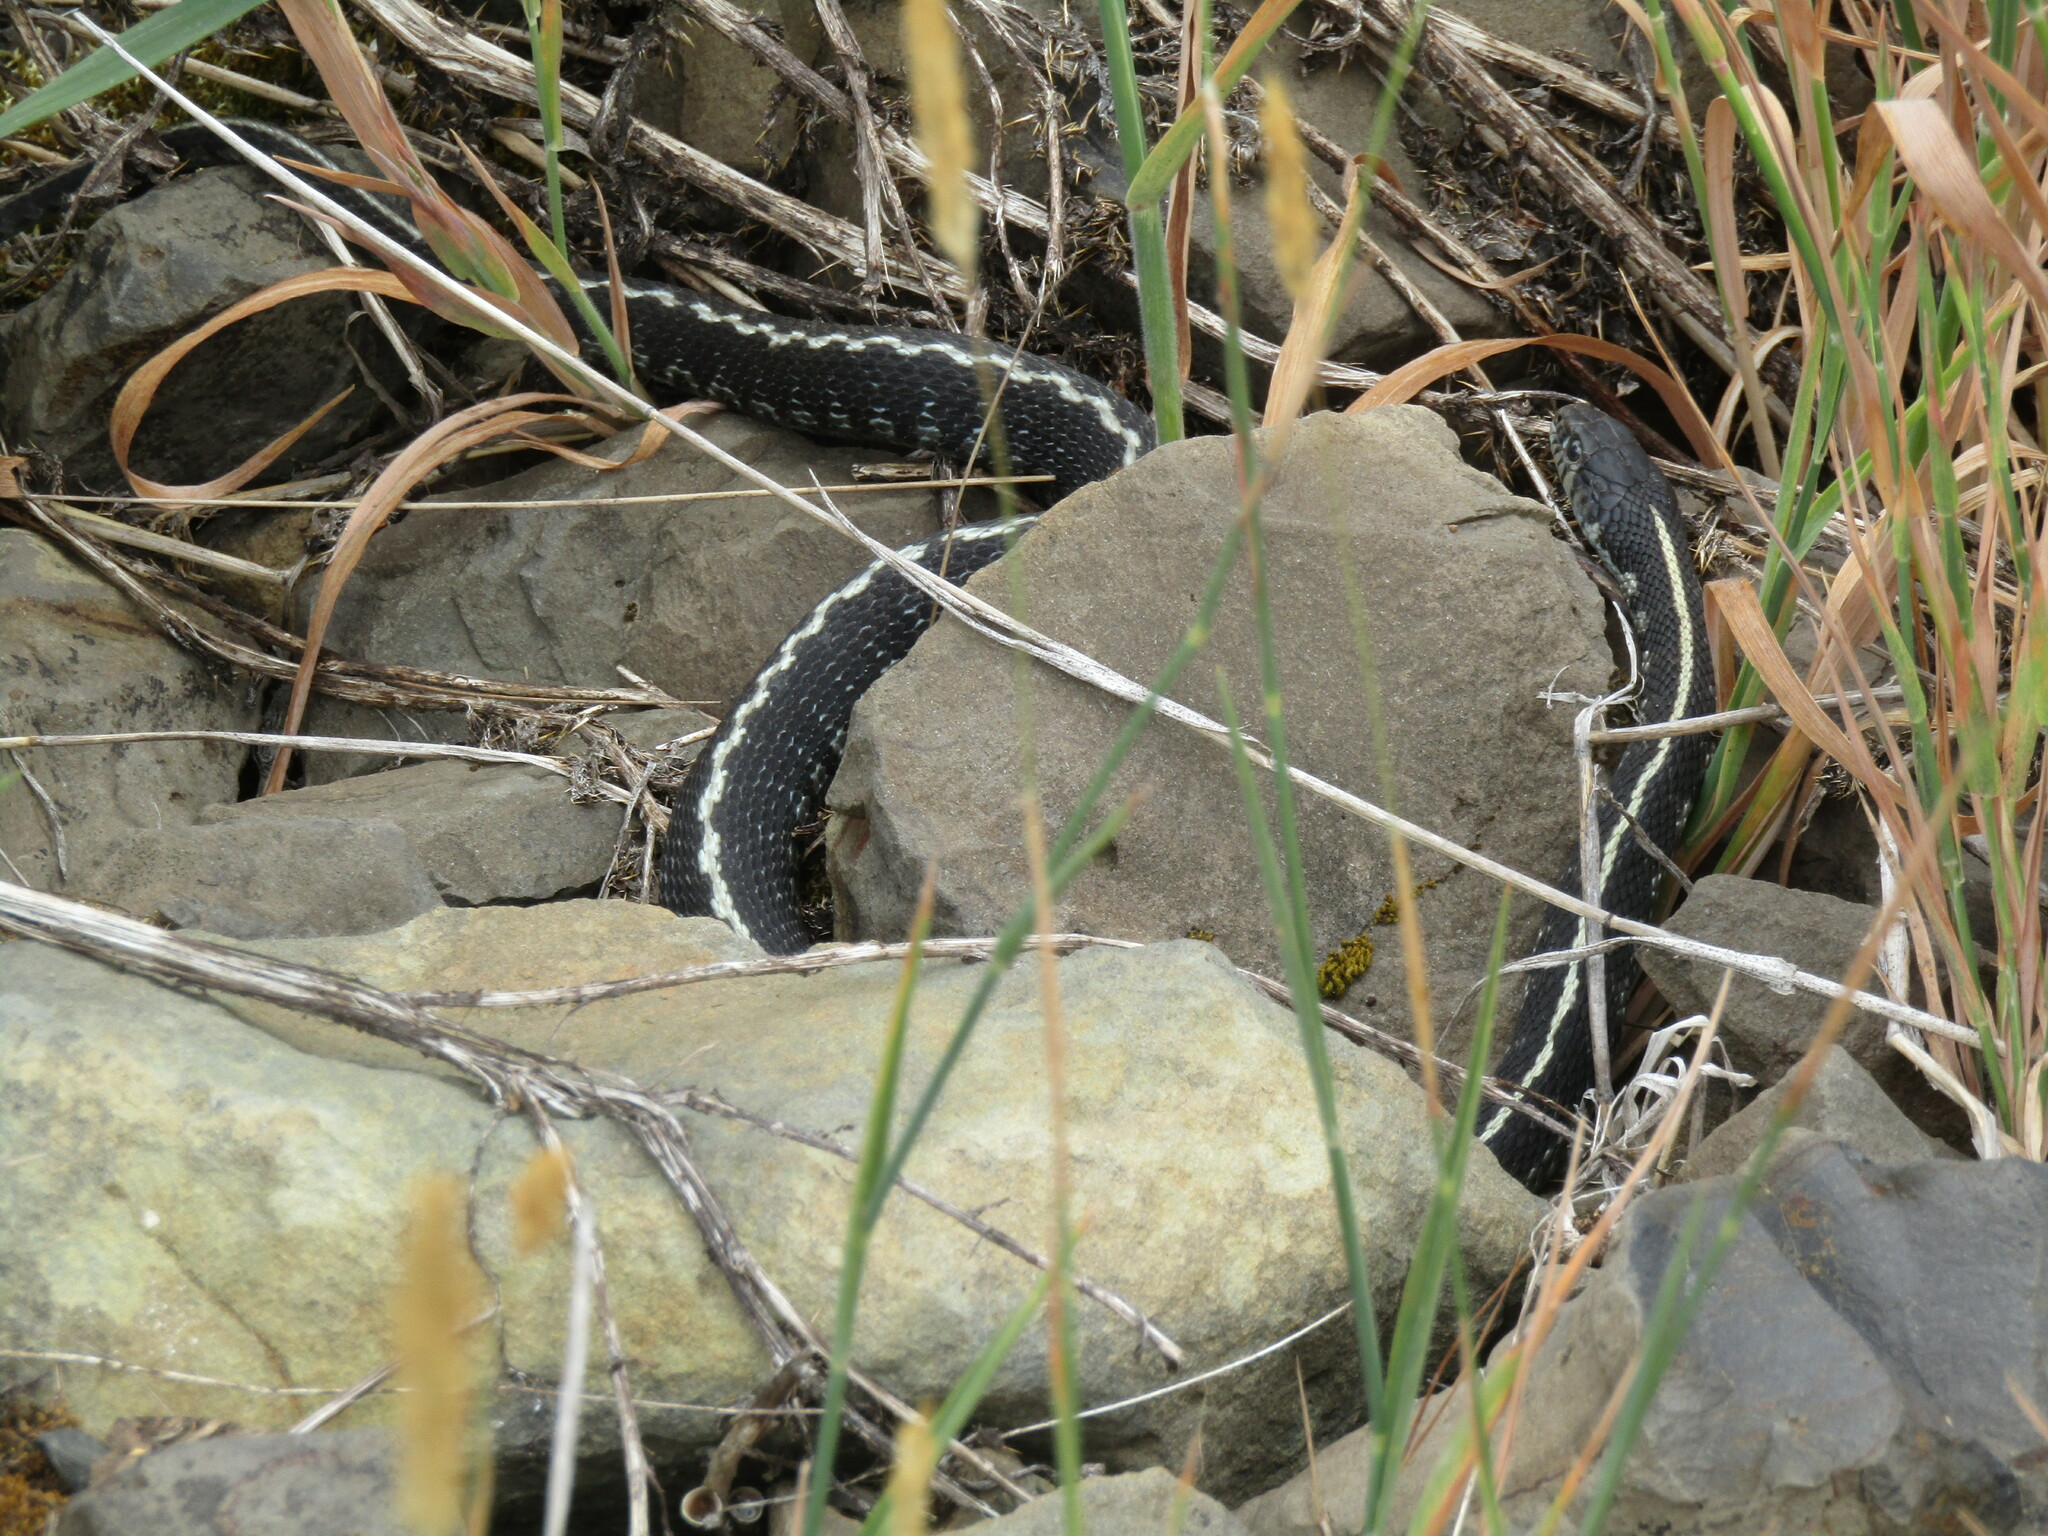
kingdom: Animalia
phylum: Chordata
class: Squamata
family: Colubridae
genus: Thamnophis
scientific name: Thamnophis elegans
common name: Western terrestrial garter snake
